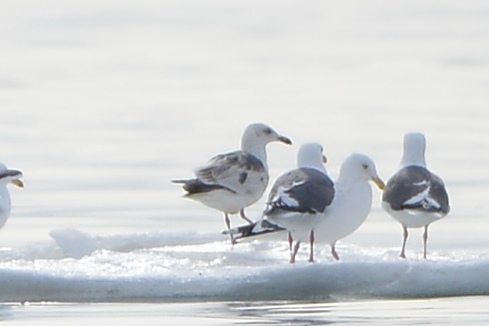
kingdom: Animalia
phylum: Chordata
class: Aves
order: Charadriiformes
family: Laridae
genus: Larus
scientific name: Larus schistisagus
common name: Slaty-backed gull
